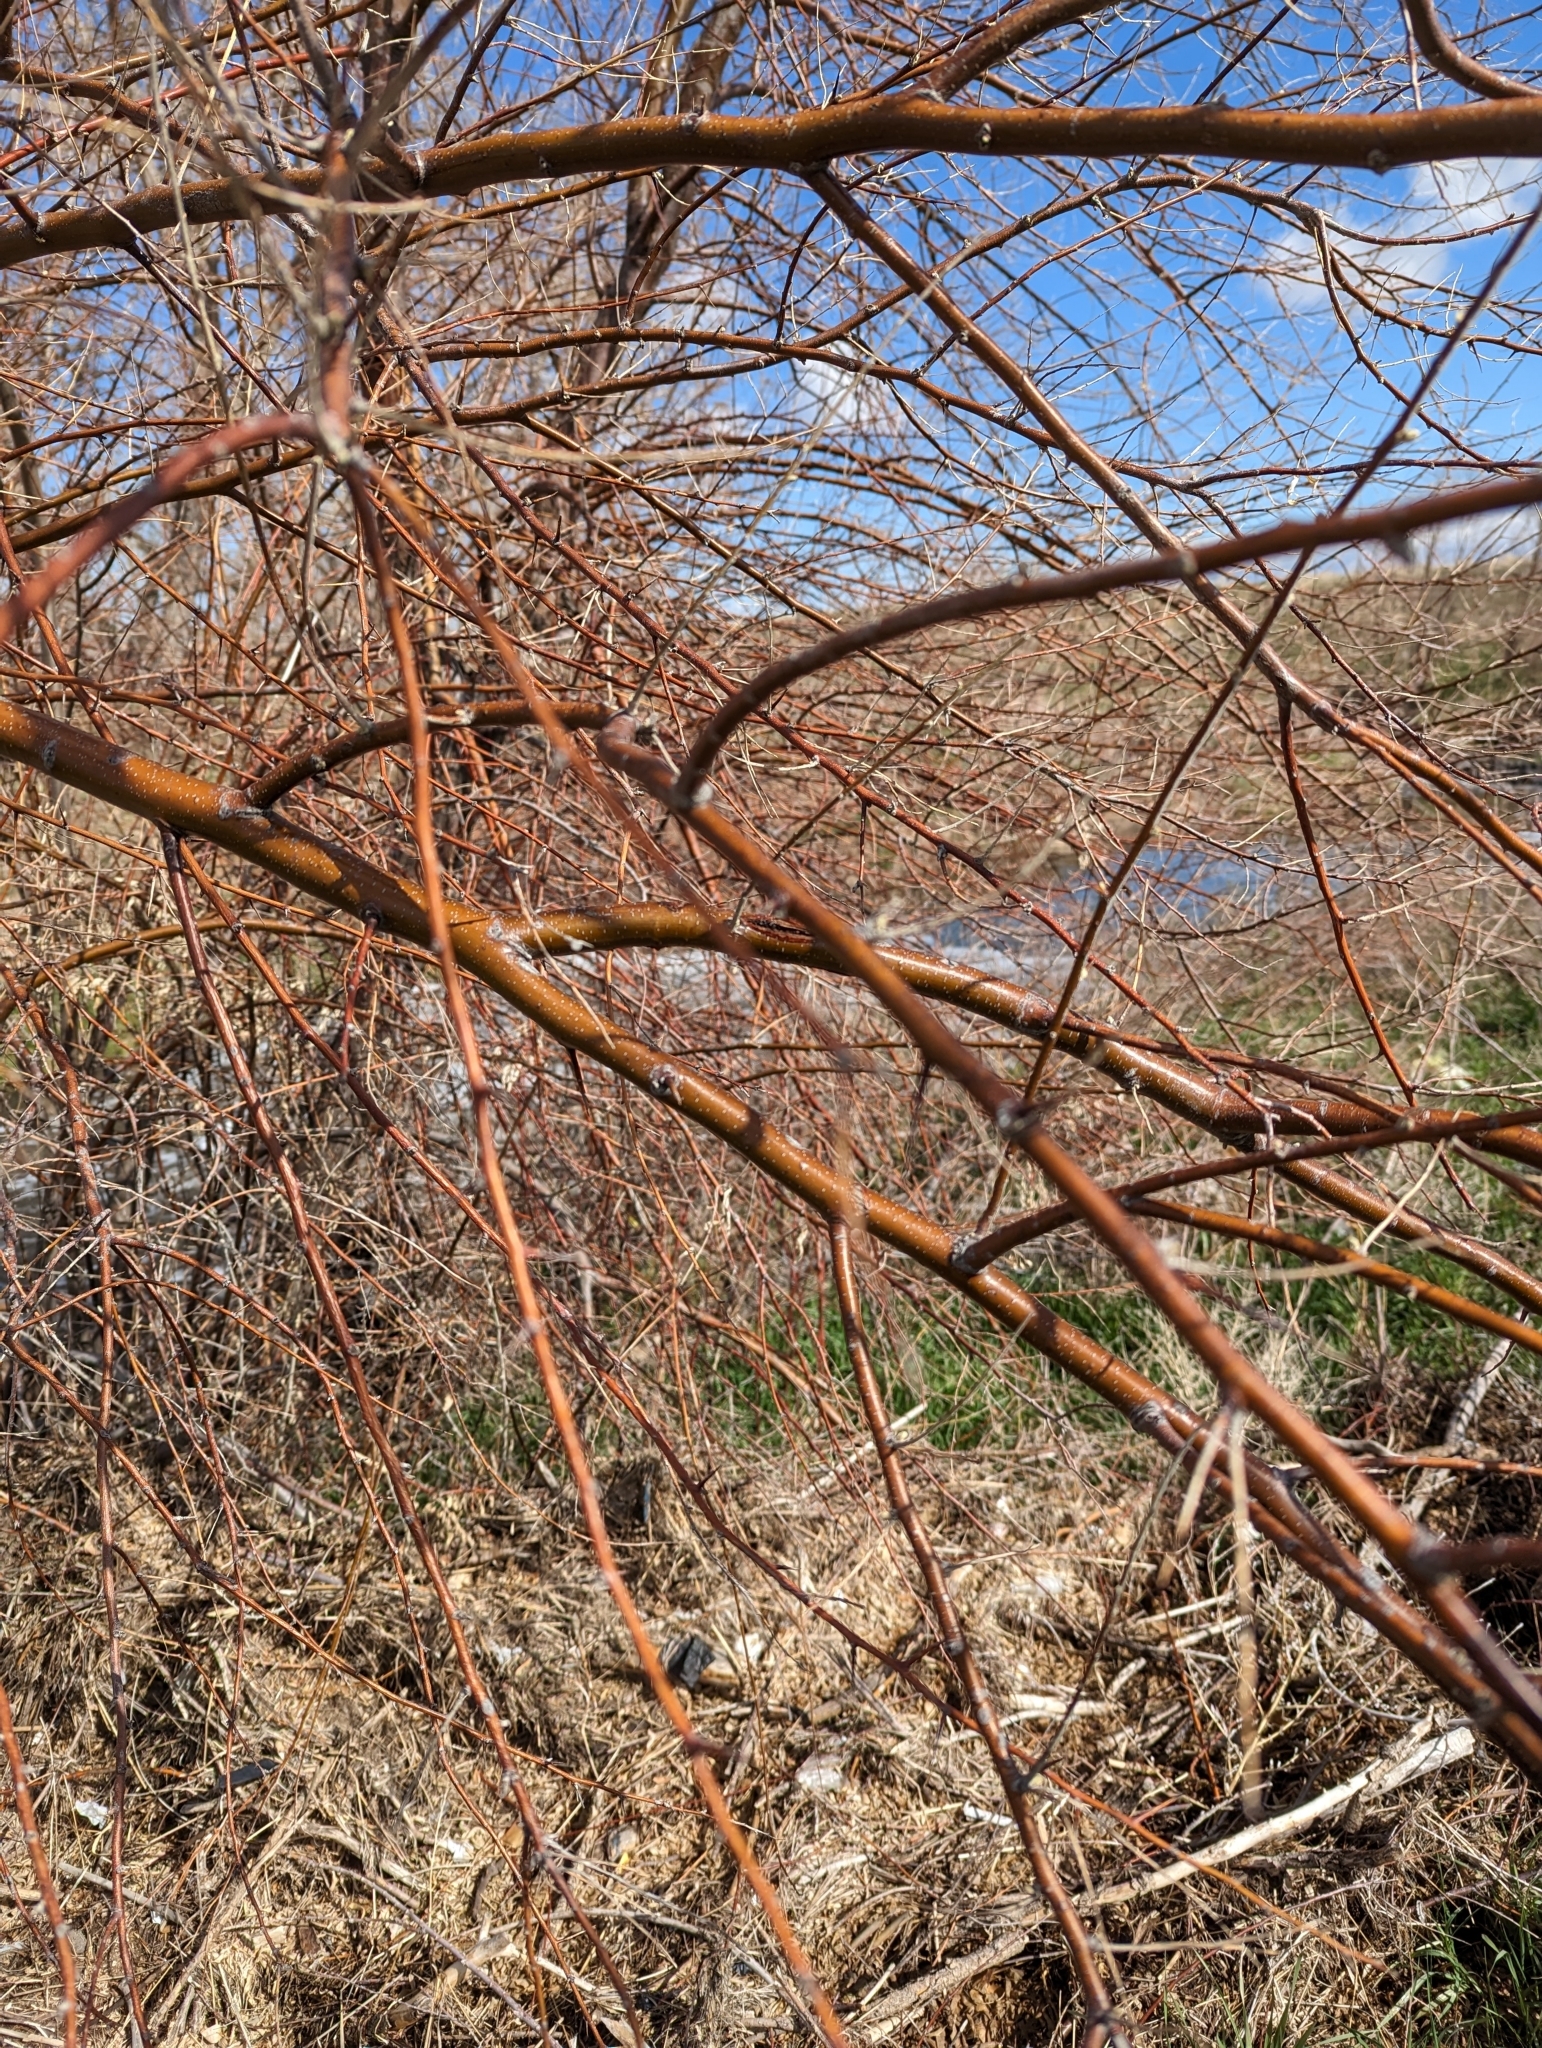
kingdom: Plantae
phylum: Tracheophyta
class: Magnoliopsida
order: Rosales
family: Elaeagnaceae
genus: Elaeagnus
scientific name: Elaeagnus angustifolia
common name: Russian olive
